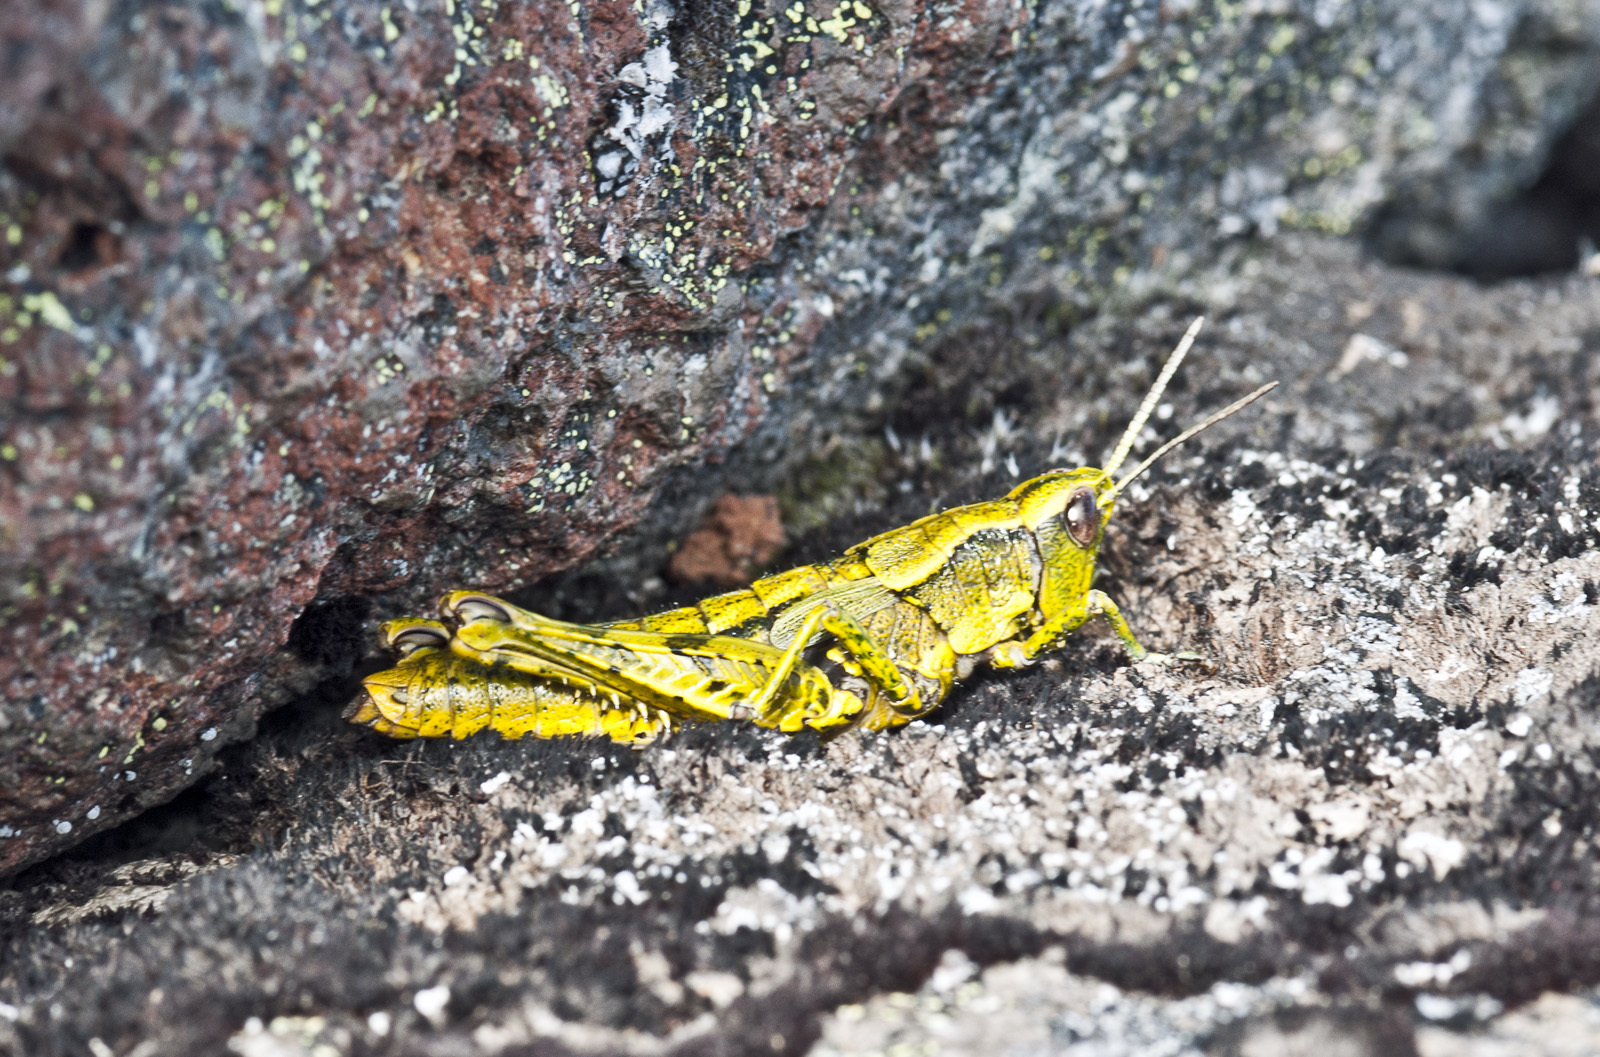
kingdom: Animalia
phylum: Arthropoda
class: Insecta
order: Orthoptera
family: Acrididae
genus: Sigaus
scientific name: Sigaus piliferus
